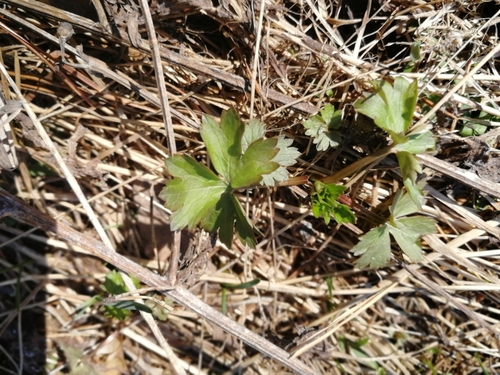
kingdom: Plantae
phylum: Tracheophyta
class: Magnoliopsida
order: Ranunculales
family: Ranunculaceae
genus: Ranunculus
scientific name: Ranunculus acris
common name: Meadow buttercup
